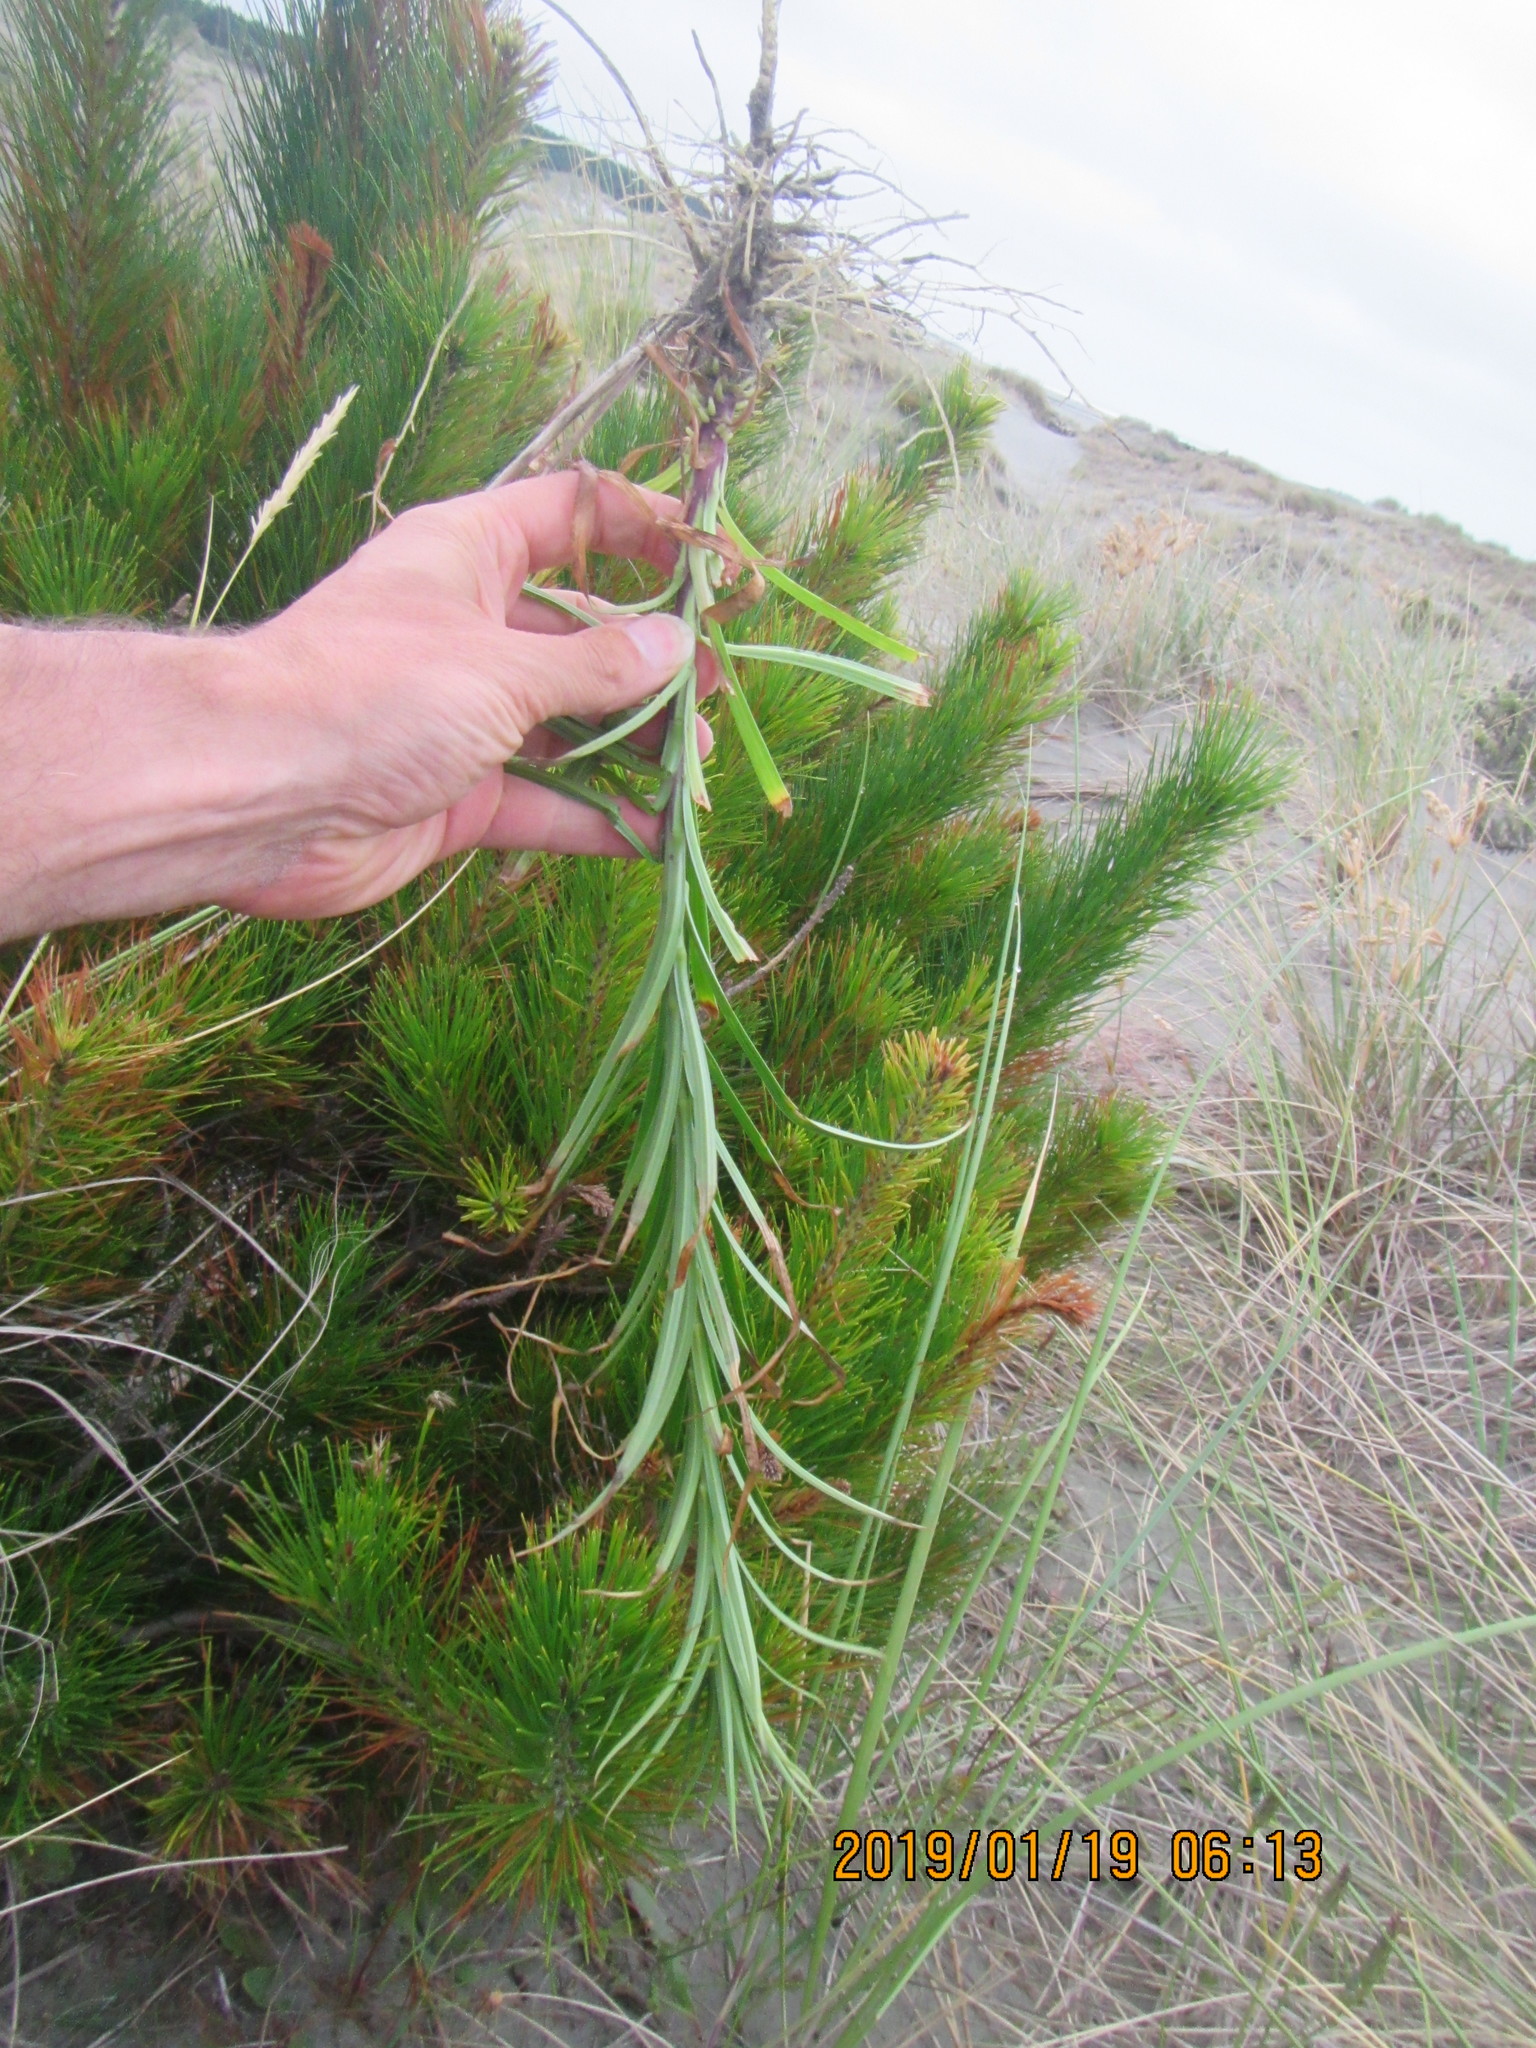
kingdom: Plantae
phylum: Tracheophyta
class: Liliopsida
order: Liliales
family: Liliaceae
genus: Lilium
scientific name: Lilium formosanum
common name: Formosa lily
